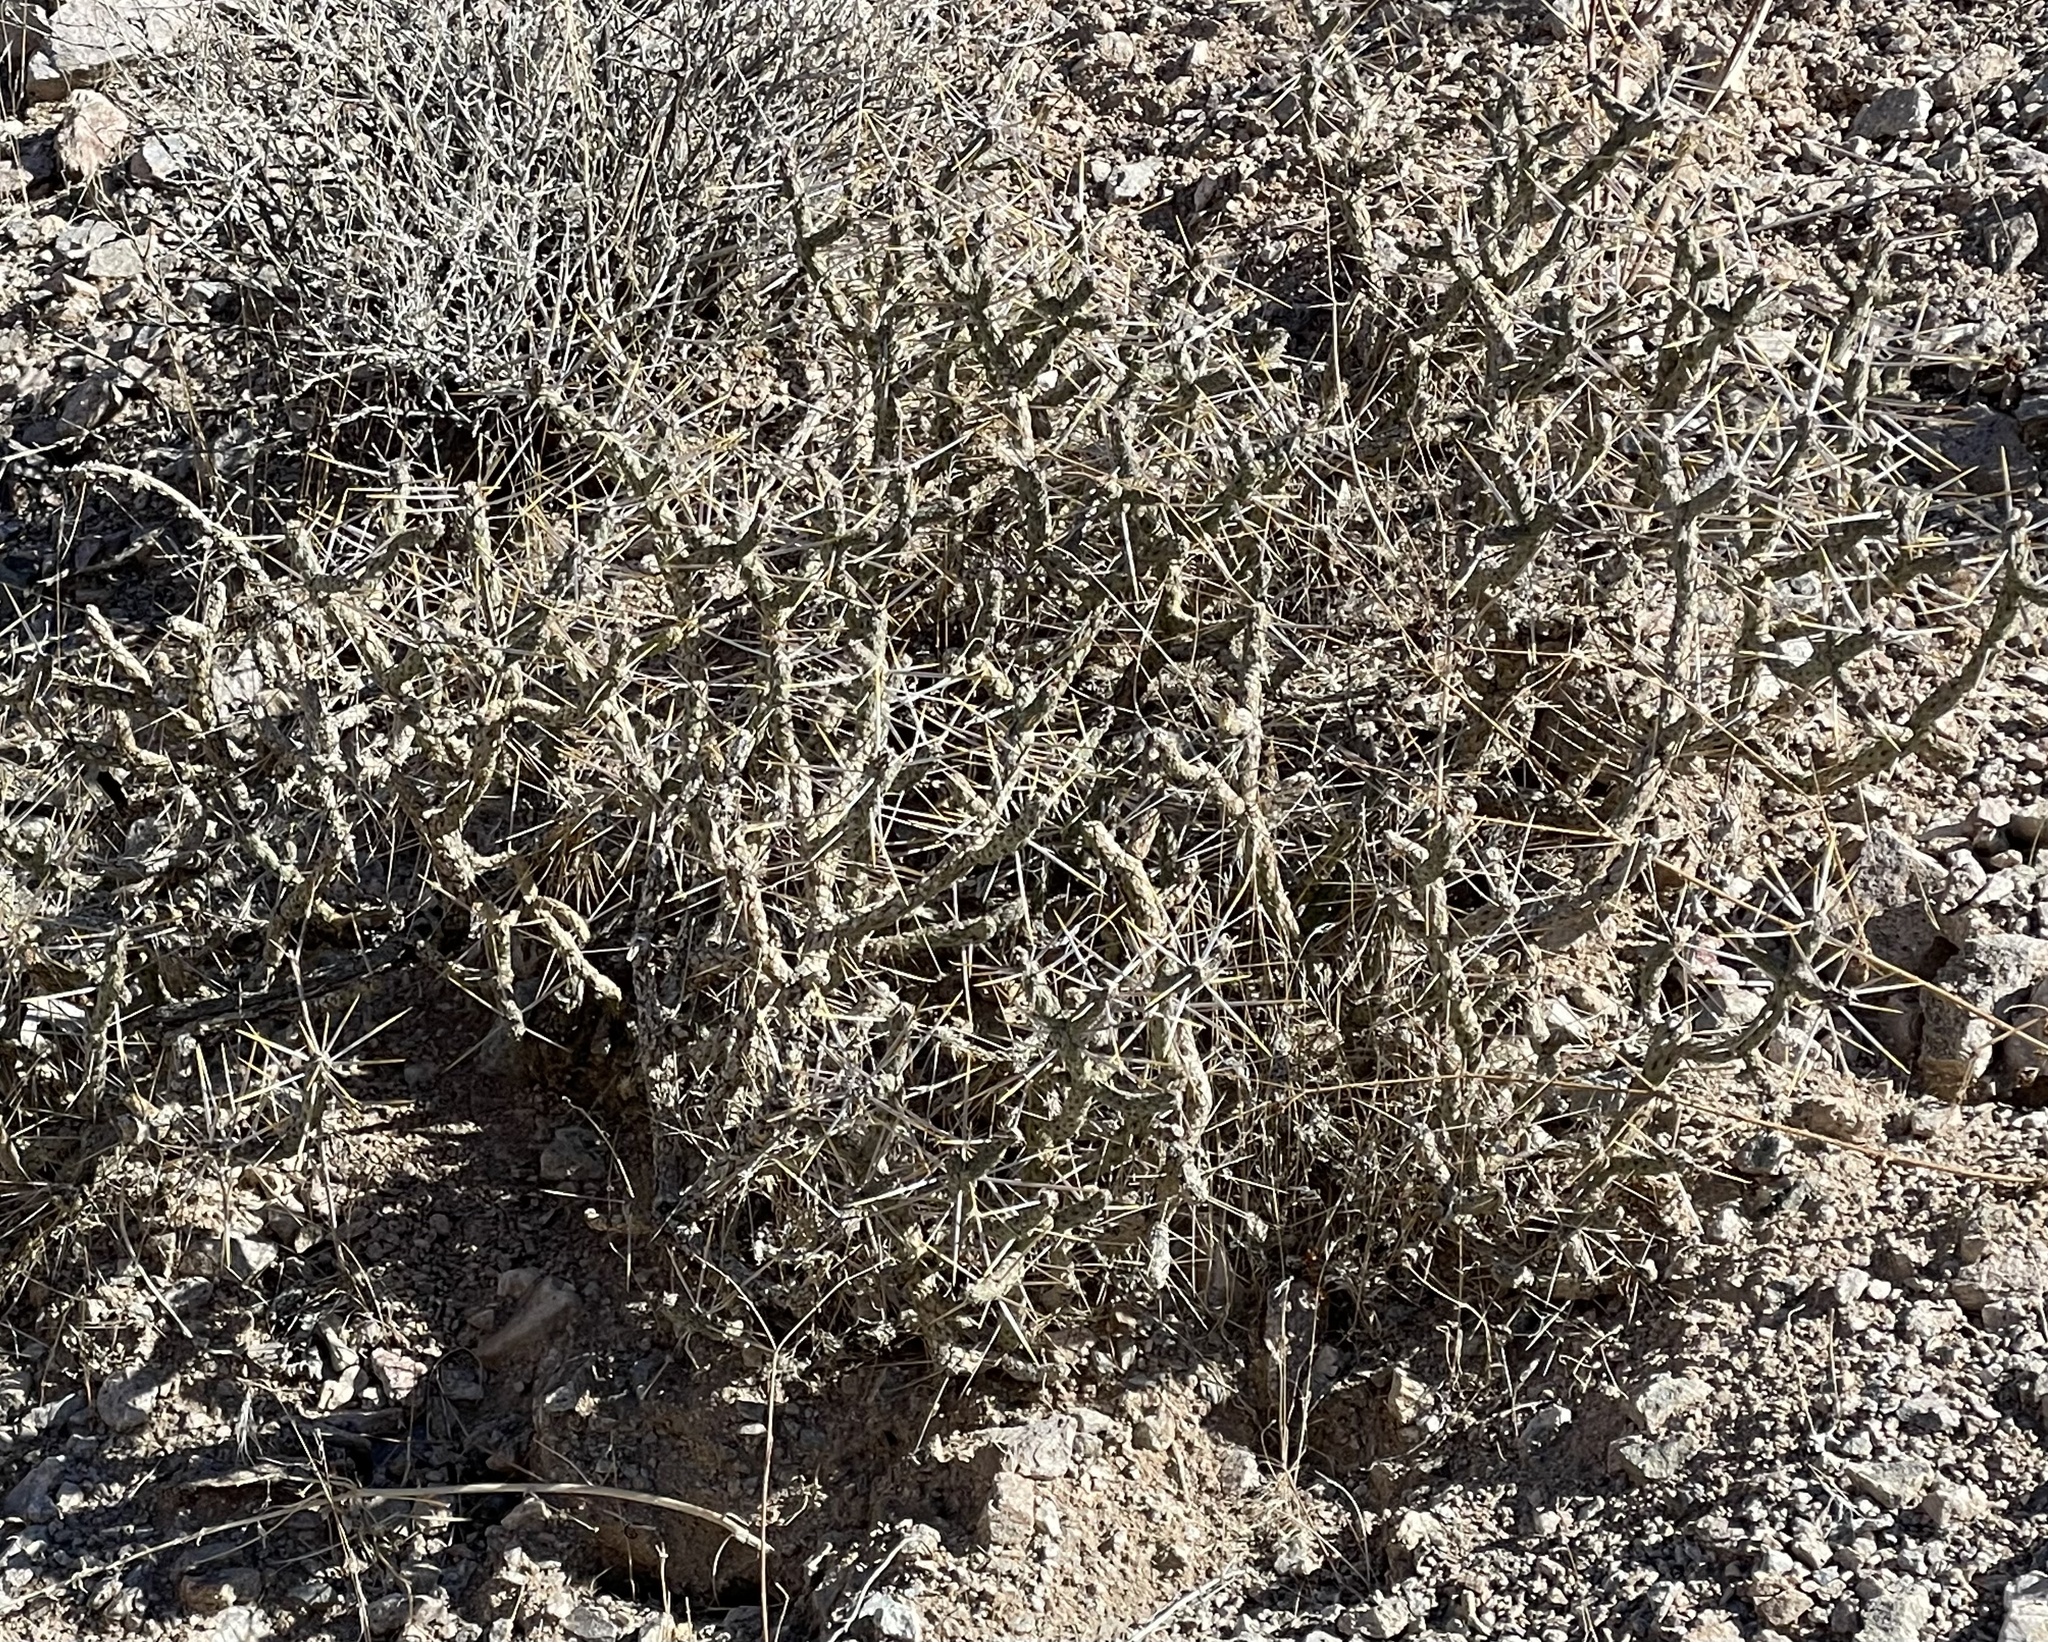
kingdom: Plantae
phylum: Tracheophyta
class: Magnoliopsida
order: Caryophyllales
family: Cactaceae
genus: Cylindropuntia
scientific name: Cylindropuntia ramosissima
